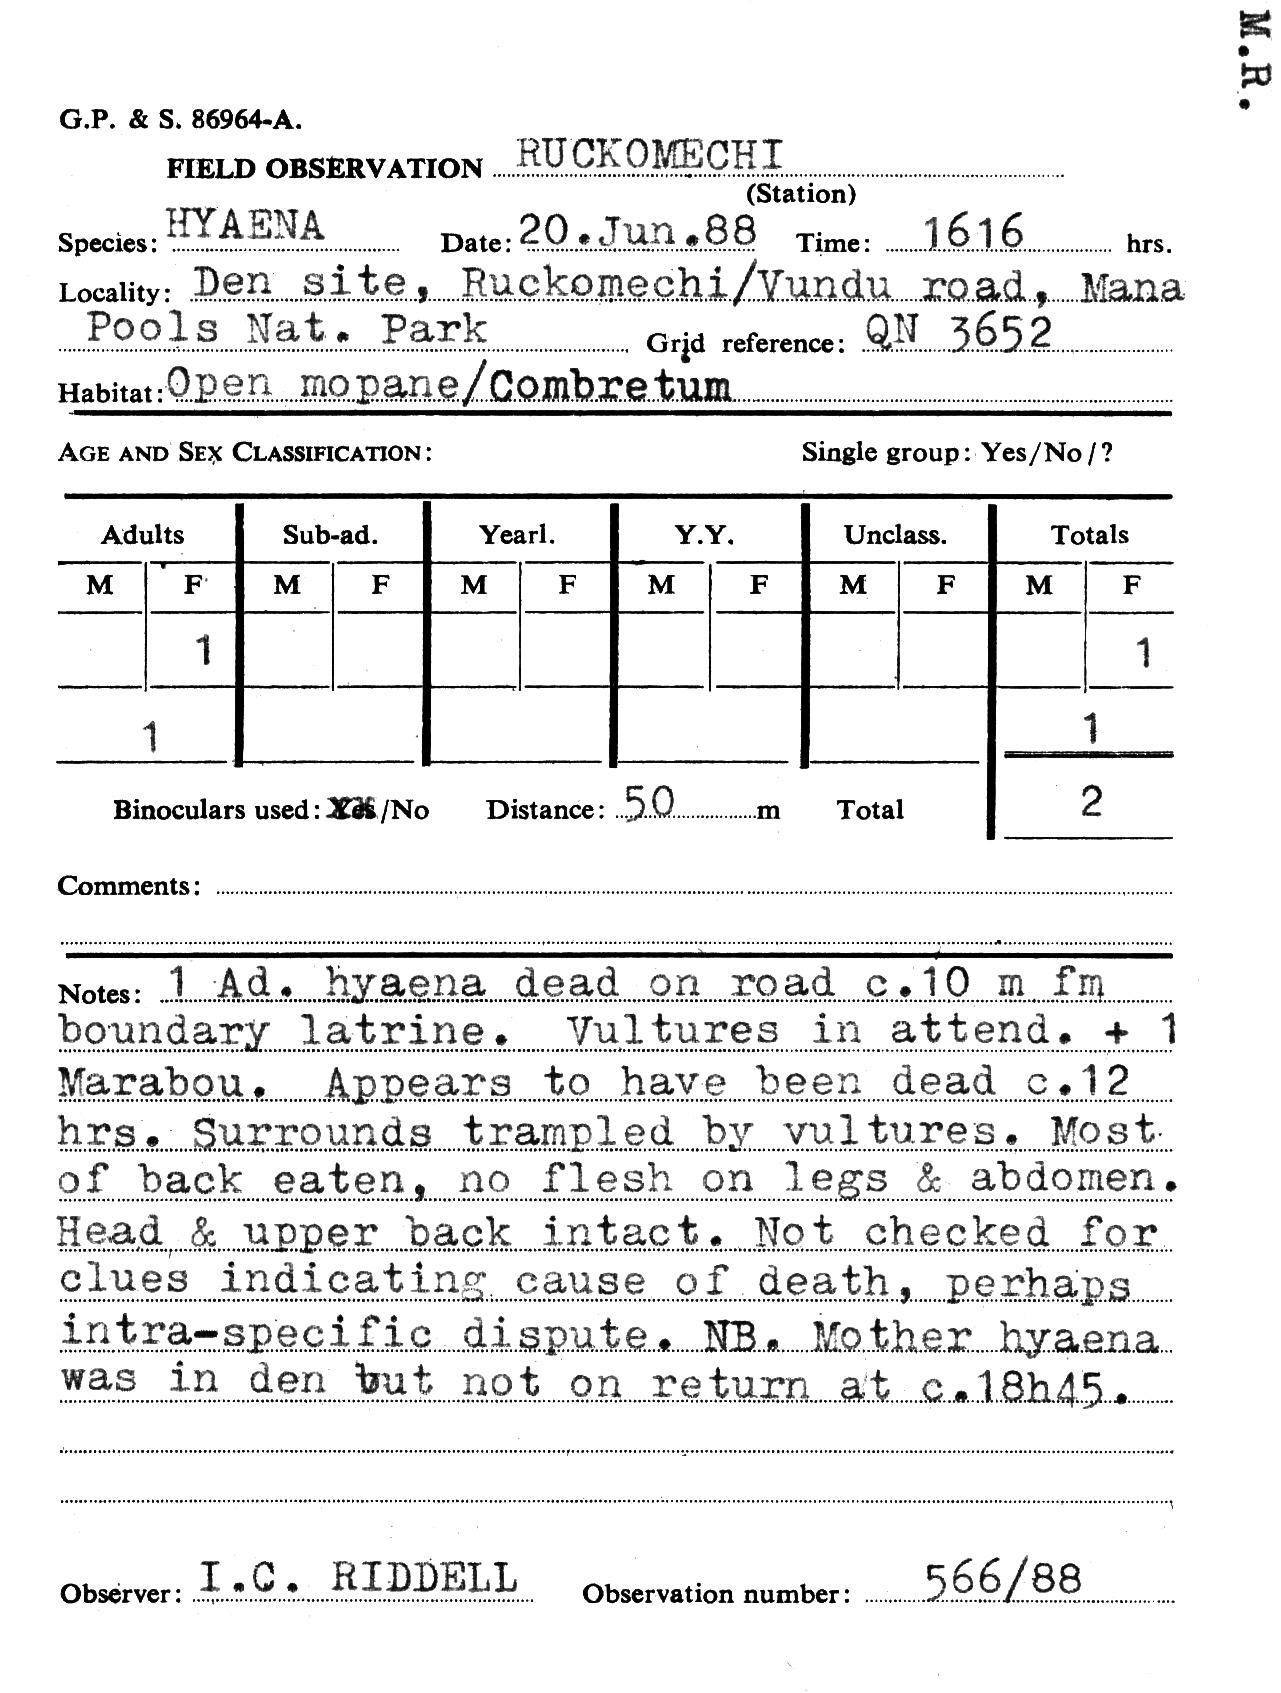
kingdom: Animalia
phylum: Chordata
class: Mammalia
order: Carnivora
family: Hyaenidae
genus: Crocuta
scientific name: Crocuta crocuta
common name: Spotted hyaena
